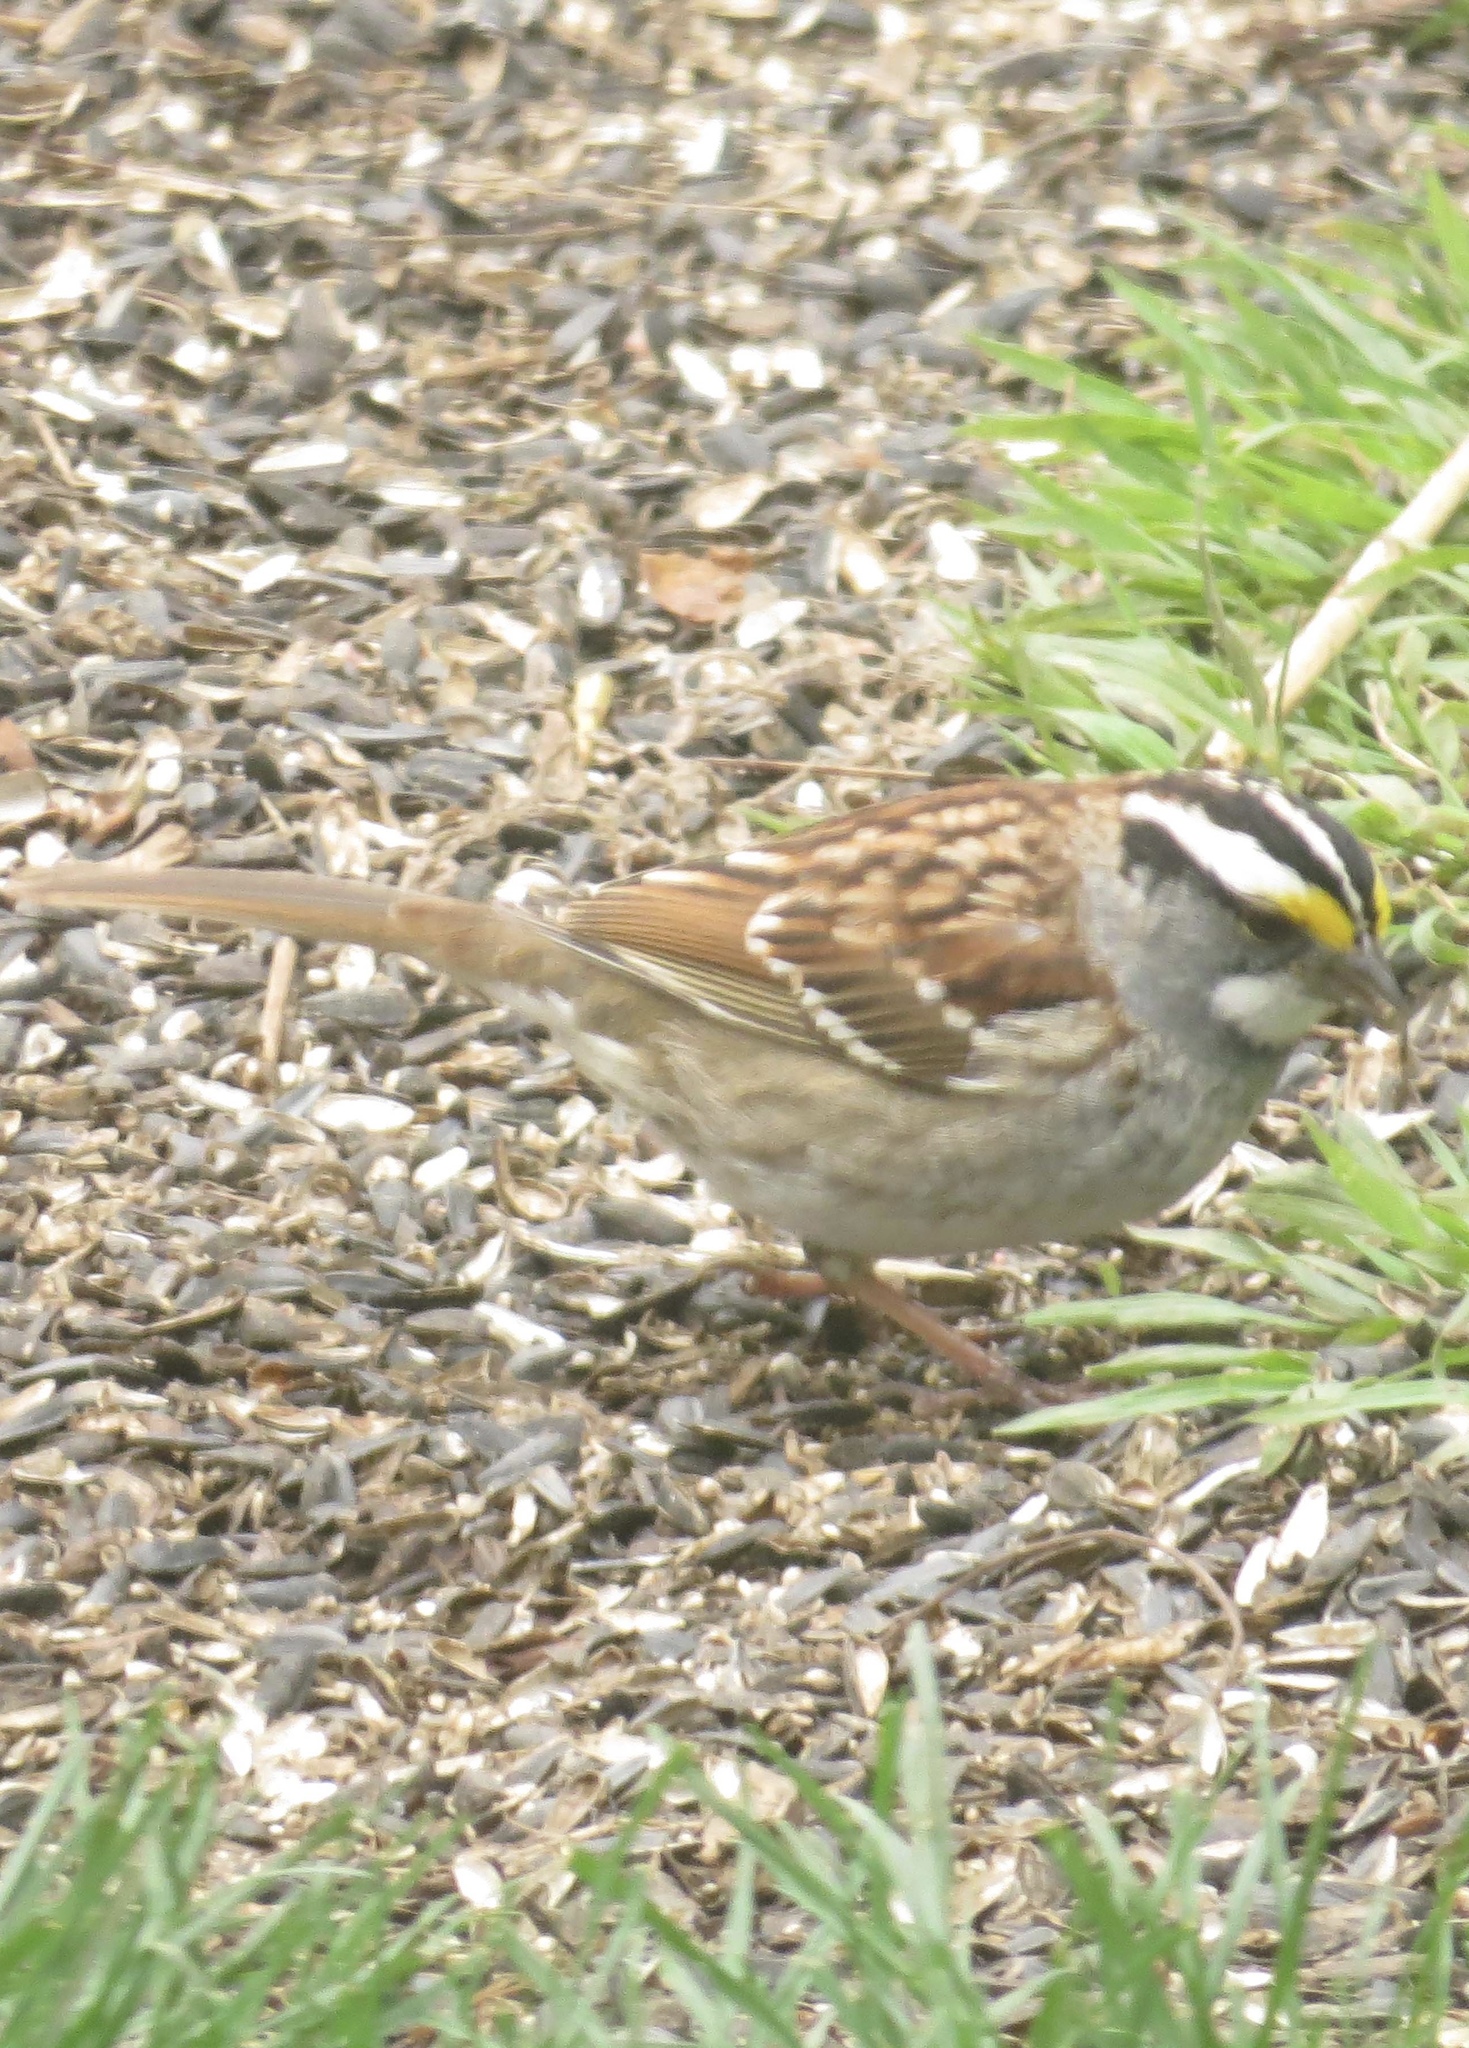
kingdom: Animalia
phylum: Chordata
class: Aves
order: Passeriformes
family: Passerellidae
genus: Zonotrichia
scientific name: Zonotrichia albicollis
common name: White-throated sparrow
